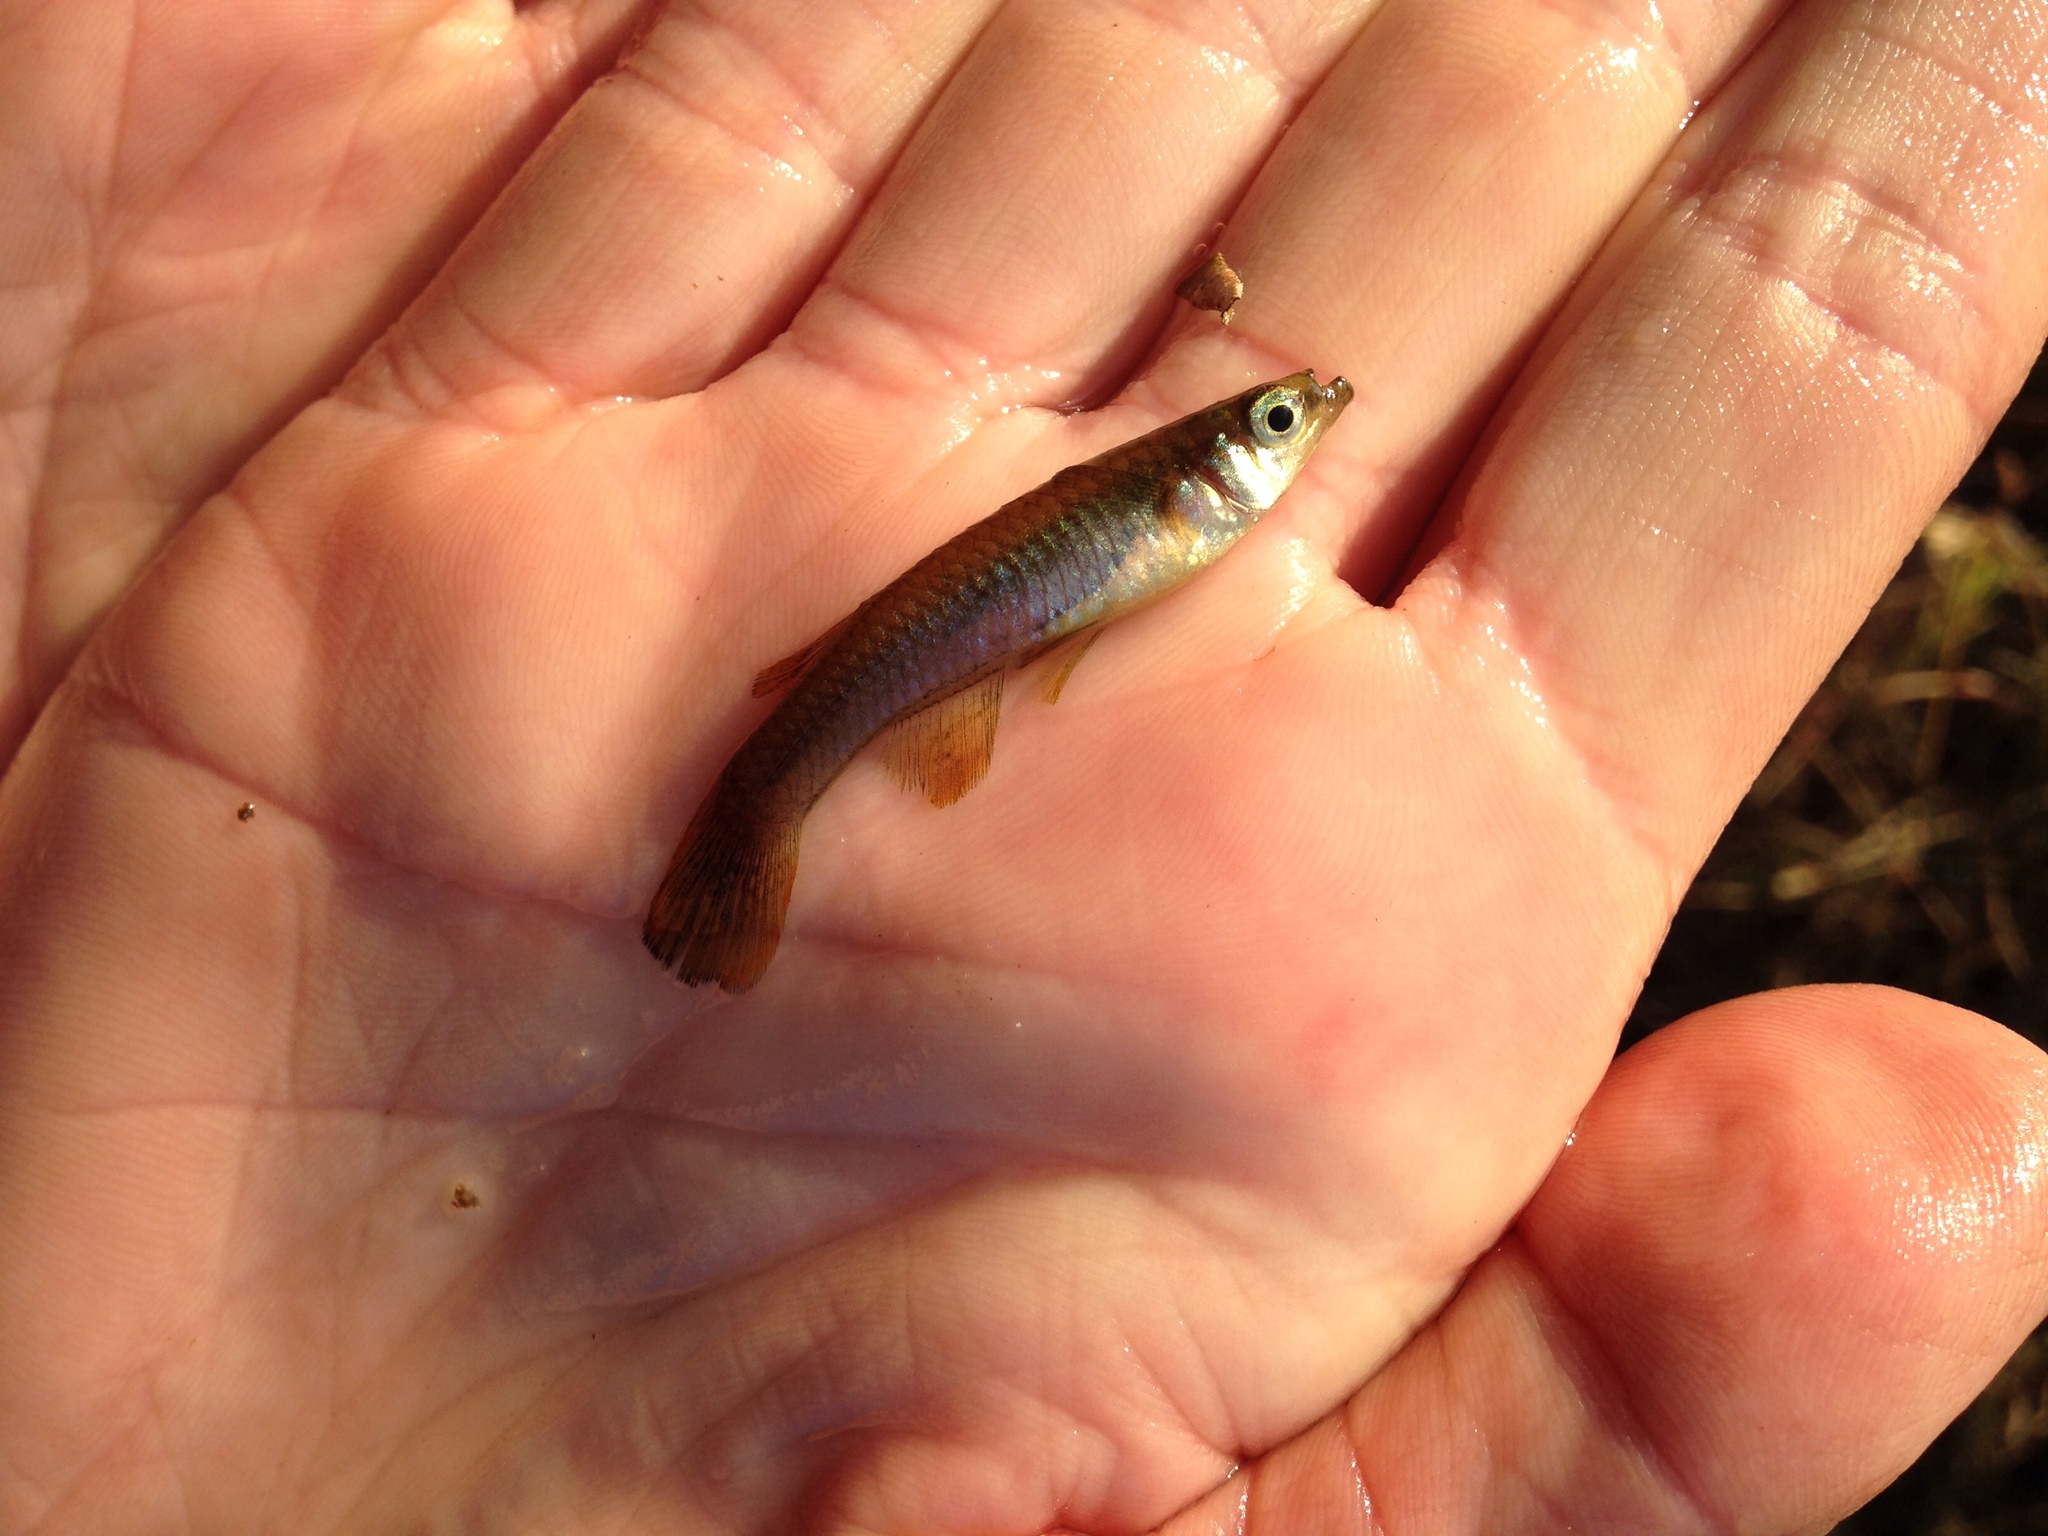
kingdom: Animalia
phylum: Chordata
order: Cyprinodontiformes
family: Poeciliidae
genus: Micropanchax
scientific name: Micropanchax johnstoni
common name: Johnston's topminnow
